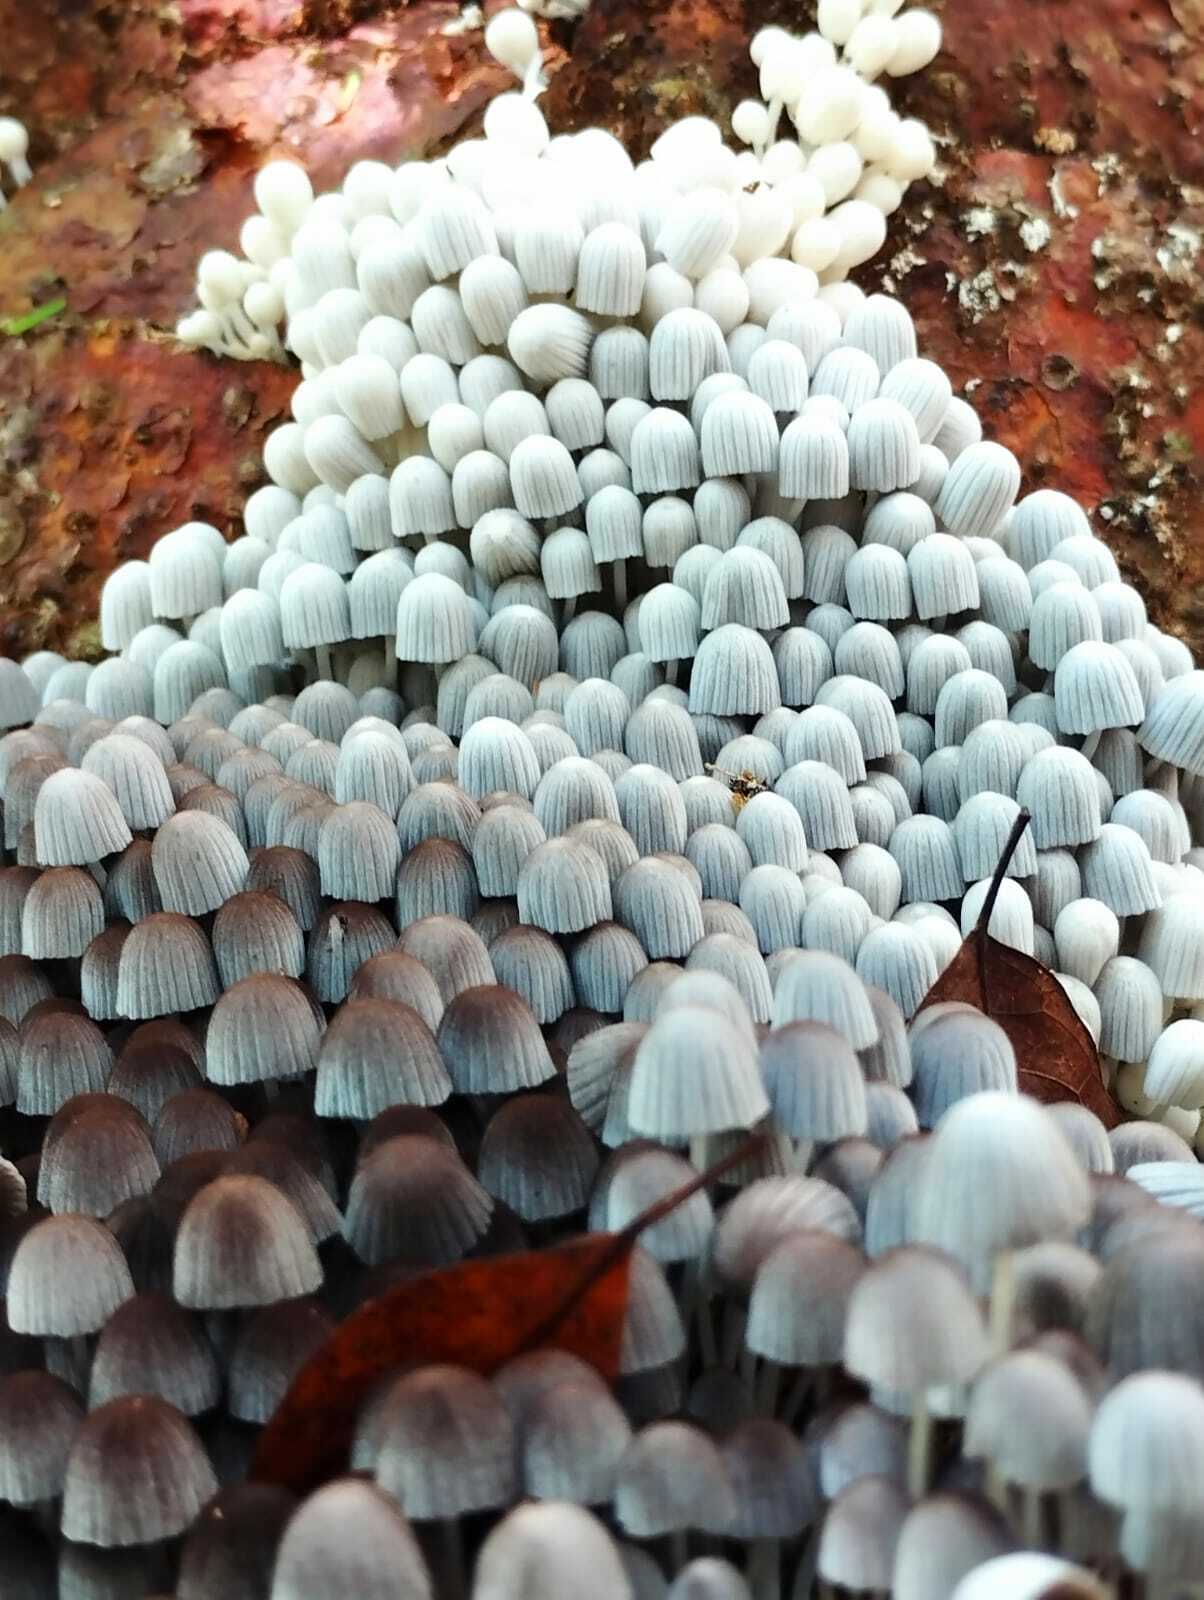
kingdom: Fungi
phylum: Basidiomycota
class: Agaricomycetes
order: Agaricales
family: Psathyrellaceae
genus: Coprinellus
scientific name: Coprinellus disseminatus
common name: Fairies' bonnets
